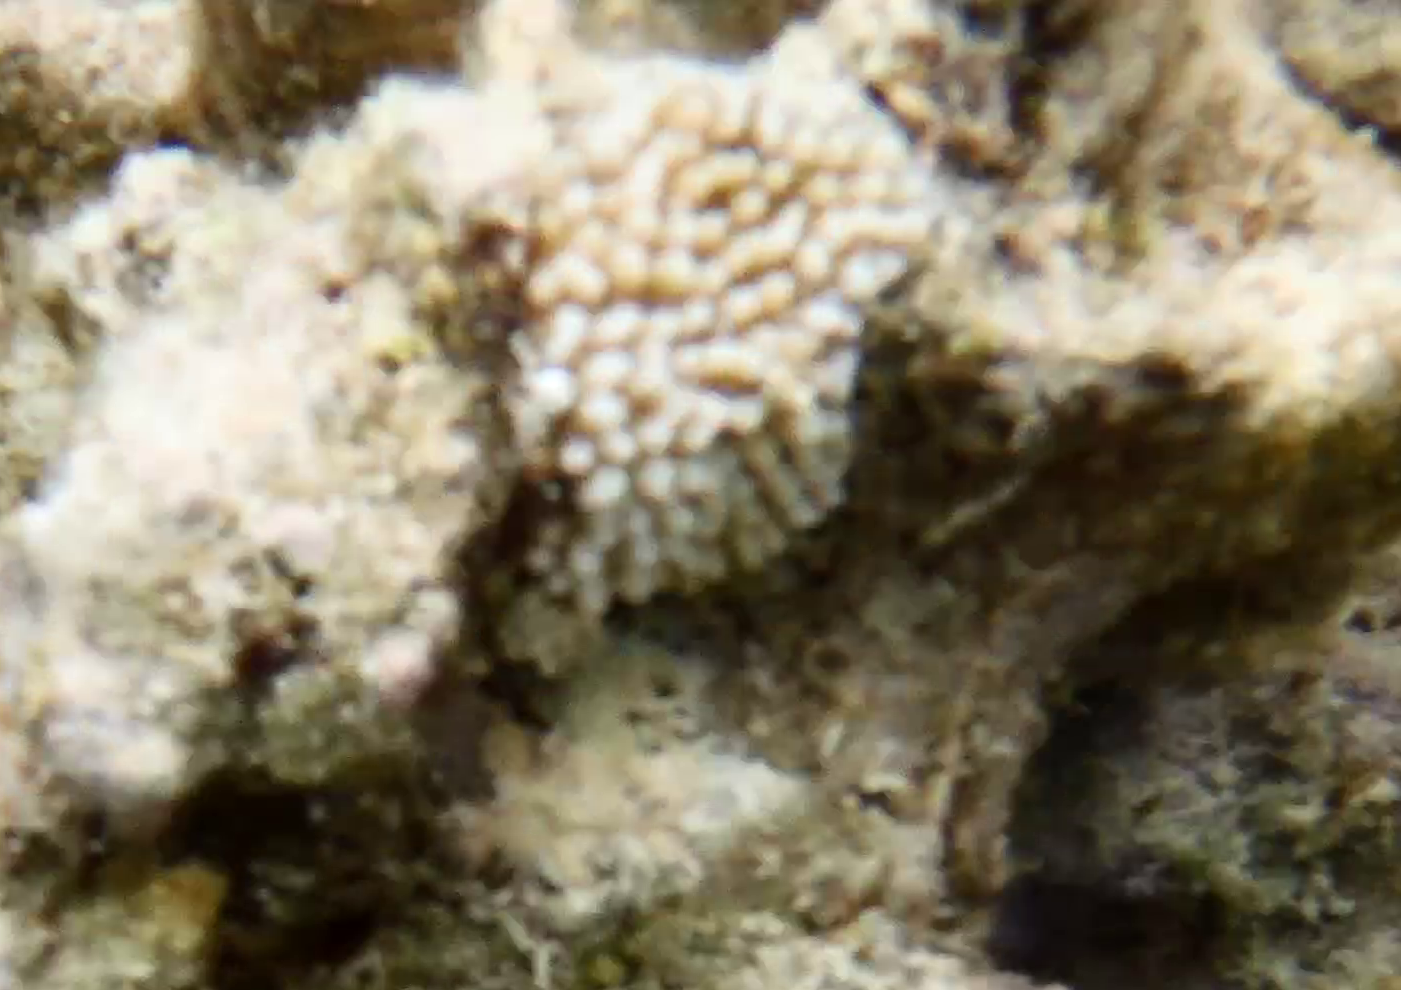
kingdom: Animalia
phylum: Cnidaria
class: Anthozoa
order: Scleractinia
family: Acroporidae
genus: Montipora
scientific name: Montipora capitata
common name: Pore coral
